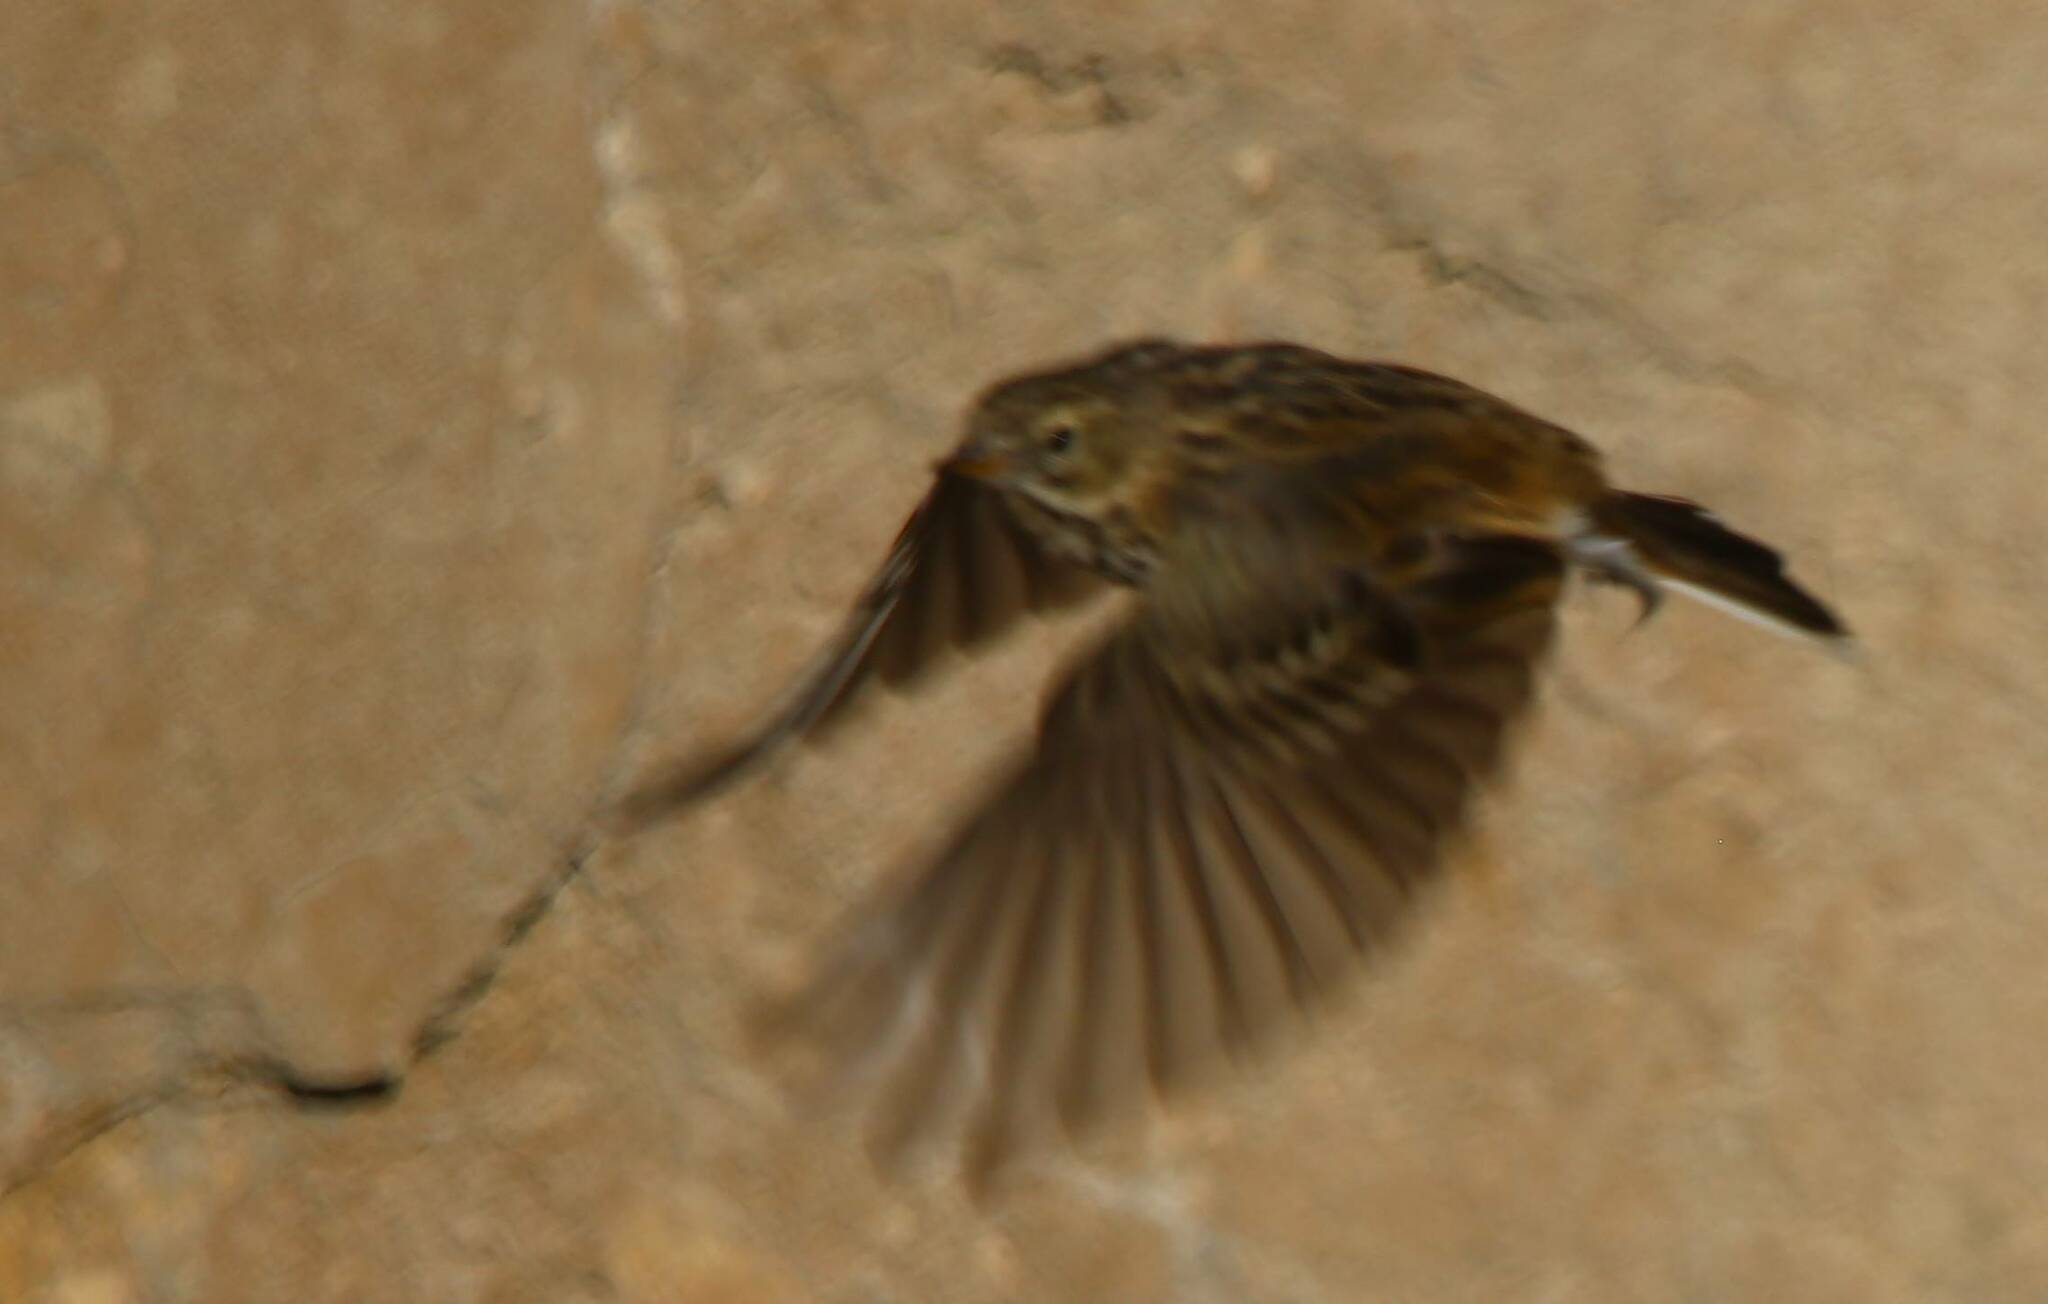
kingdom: Animalia
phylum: Chordata
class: Aves
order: Passeriformes
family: Motacillidae
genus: Anthus
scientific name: Anthus pratensis
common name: Meadow pipit
